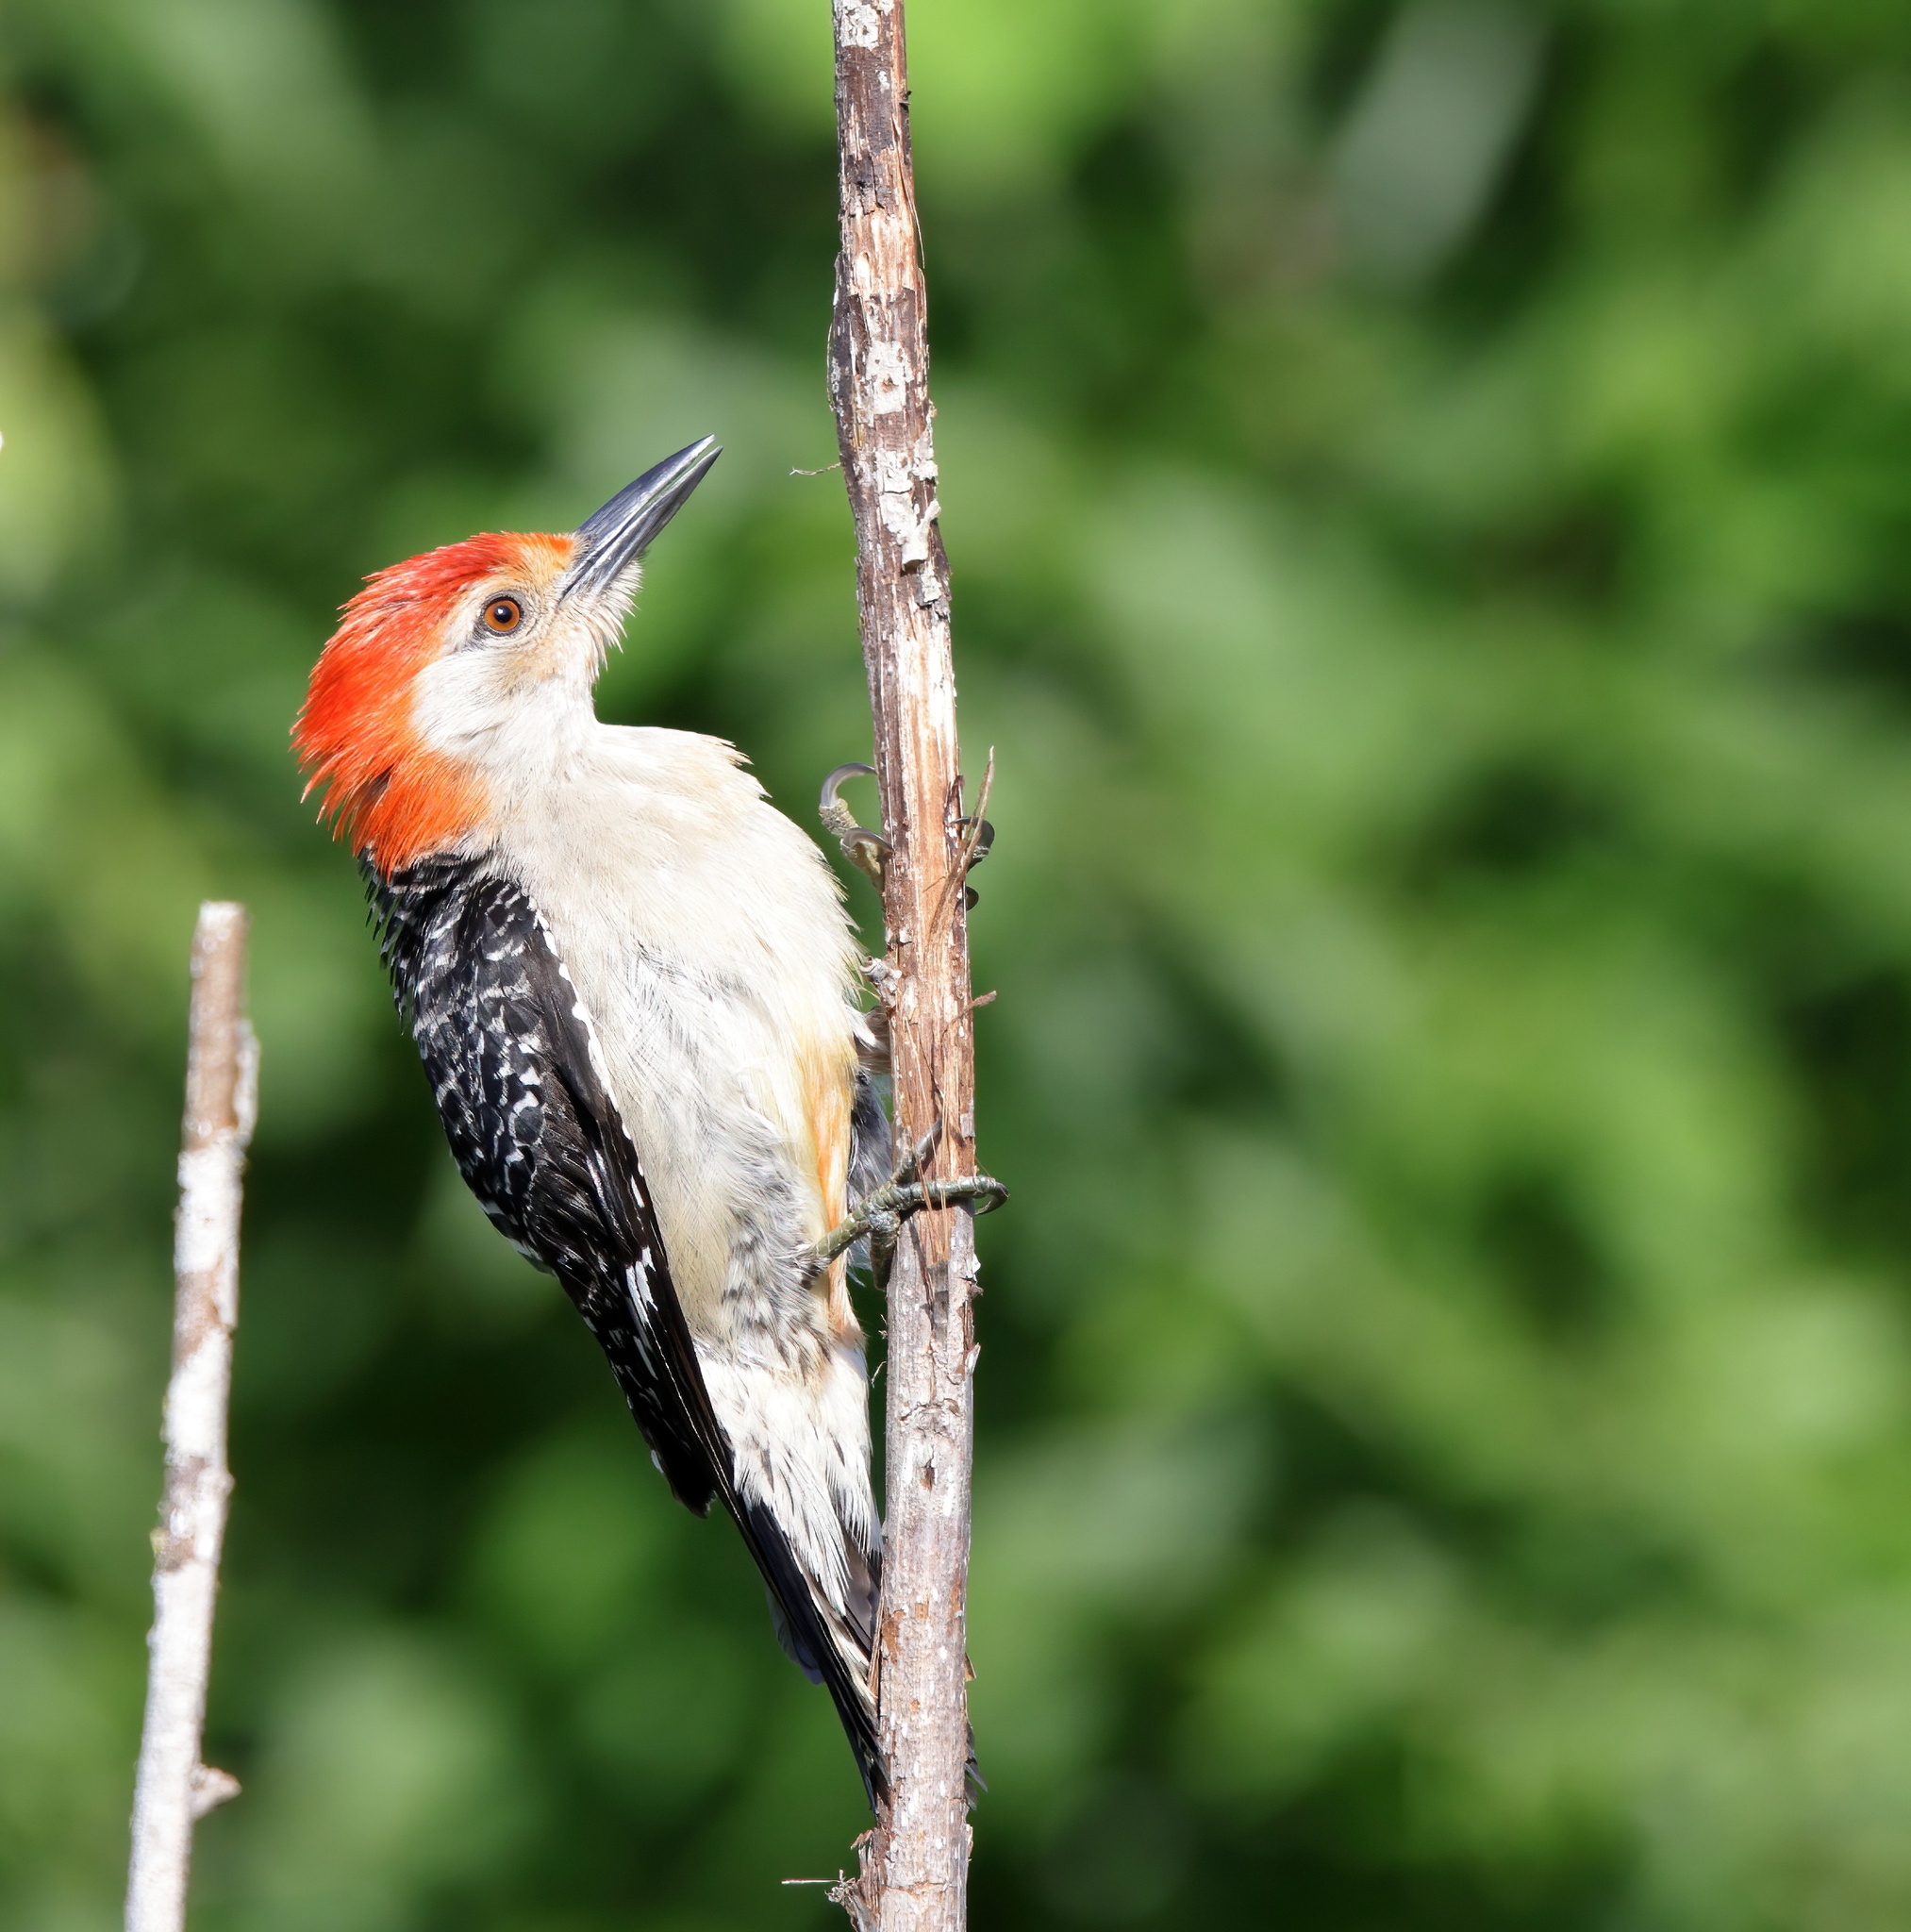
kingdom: Animalia
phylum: Chordata
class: Aves
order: Piciformes
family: Picidae
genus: Melanerpes
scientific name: Melanerpes carolinus
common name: Red-bellied woodpecker
